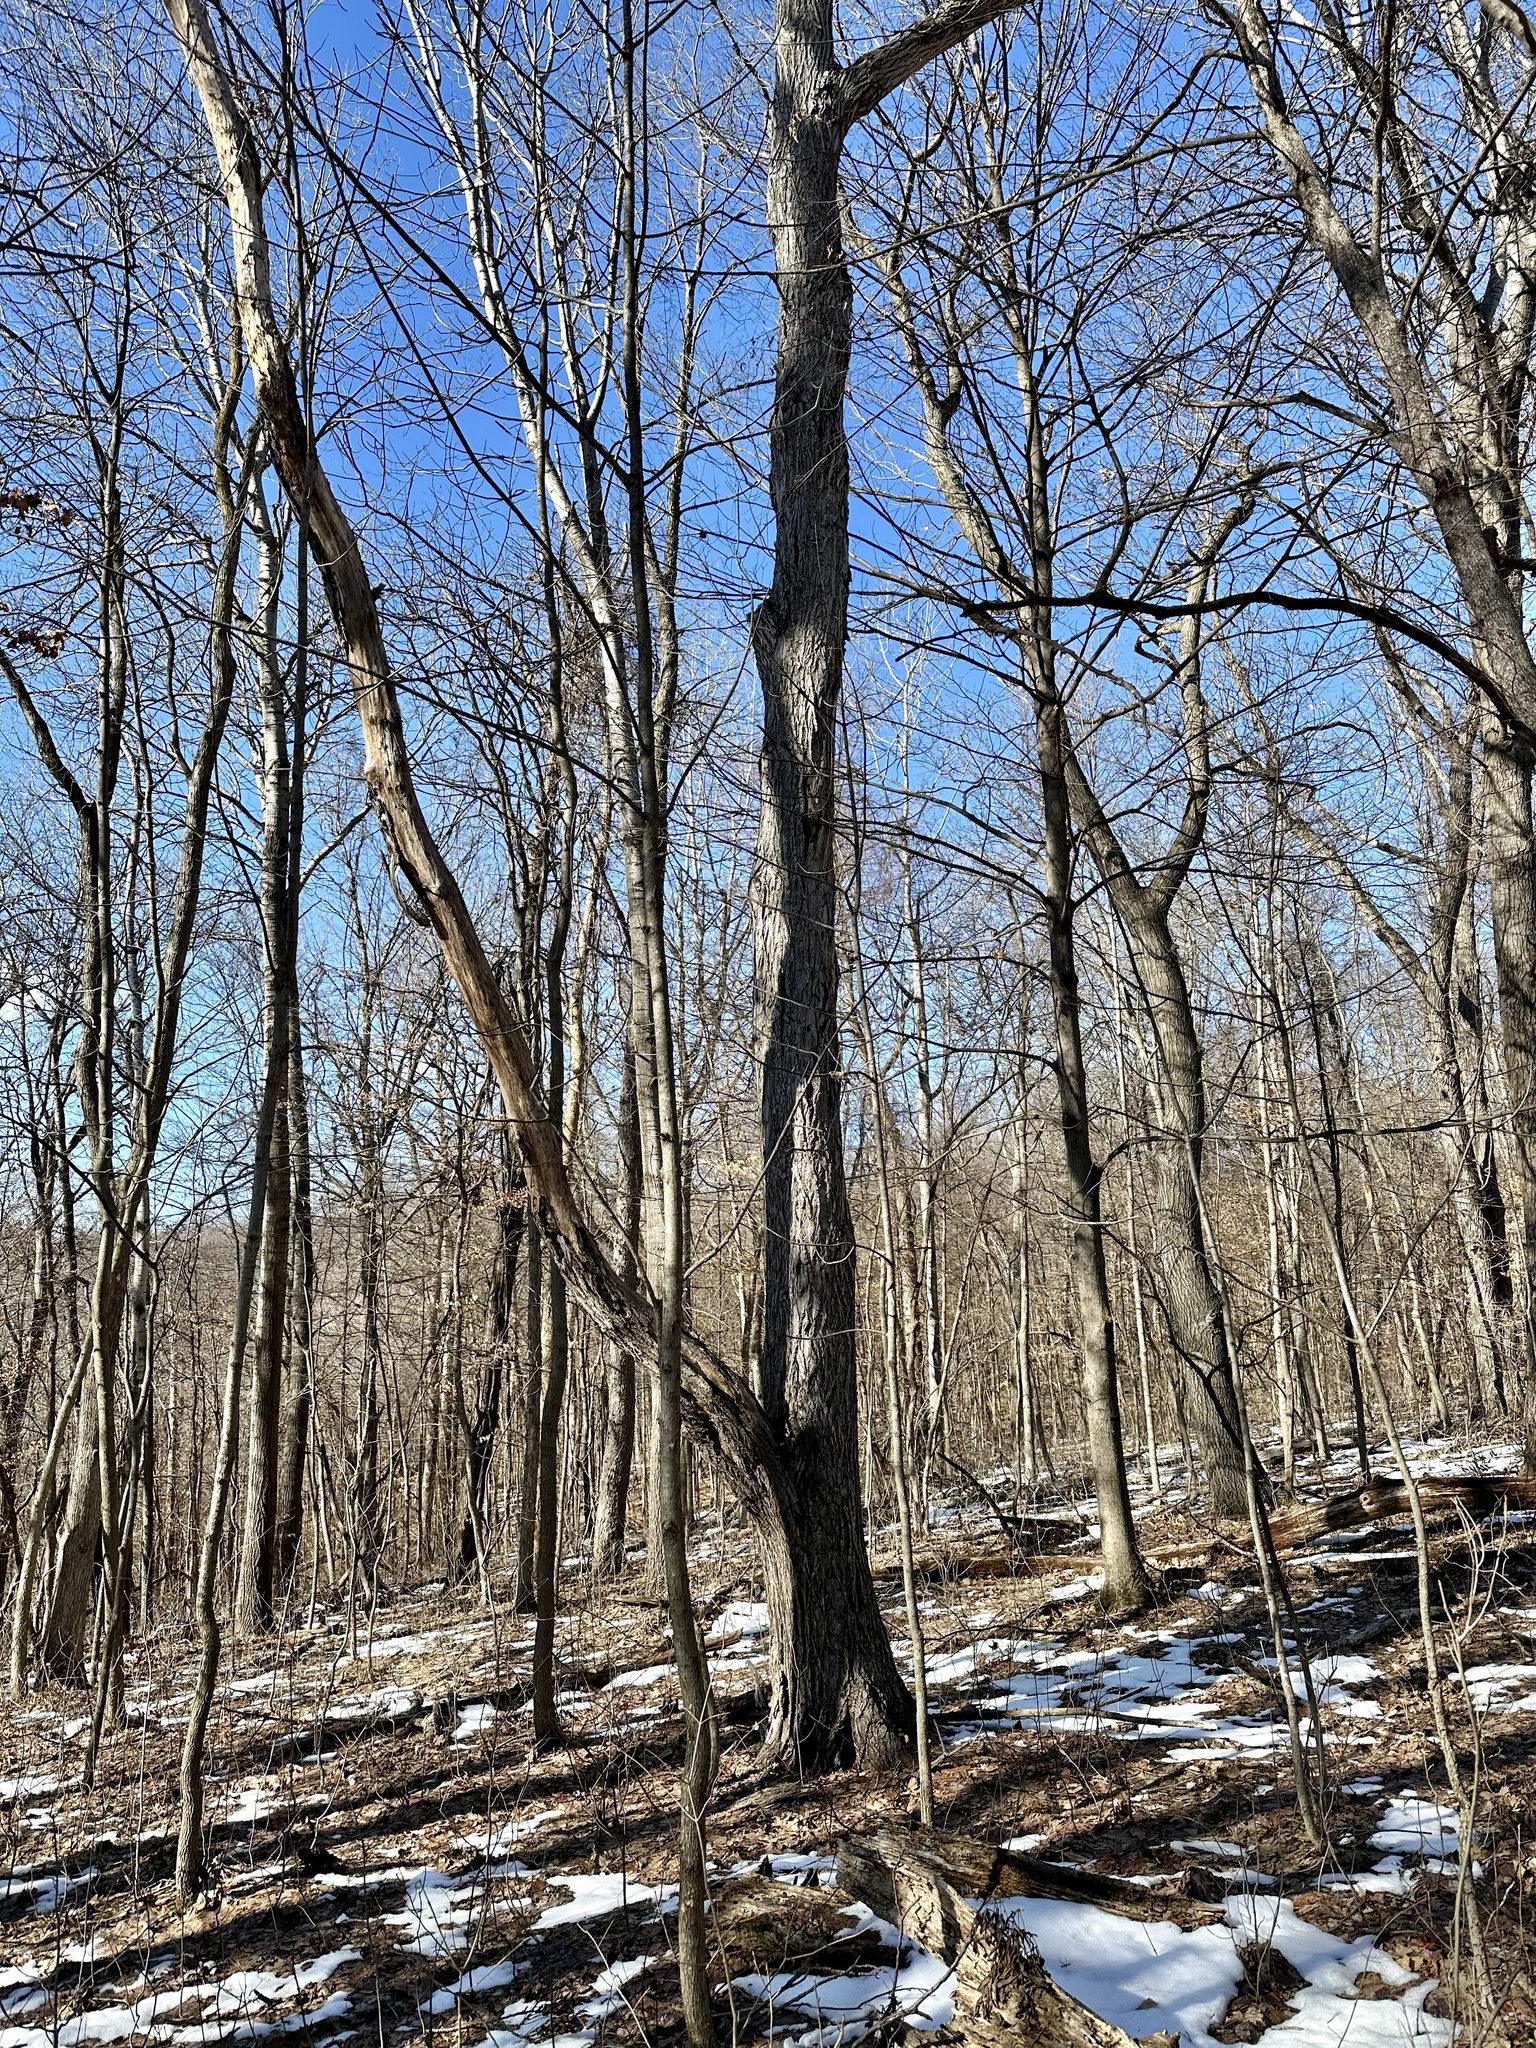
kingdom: Plantae
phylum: Tracheophyta
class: Magnoliopsida
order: Fagales
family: Fagaceae
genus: Quercus
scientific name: Quercus alba
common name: White oak
